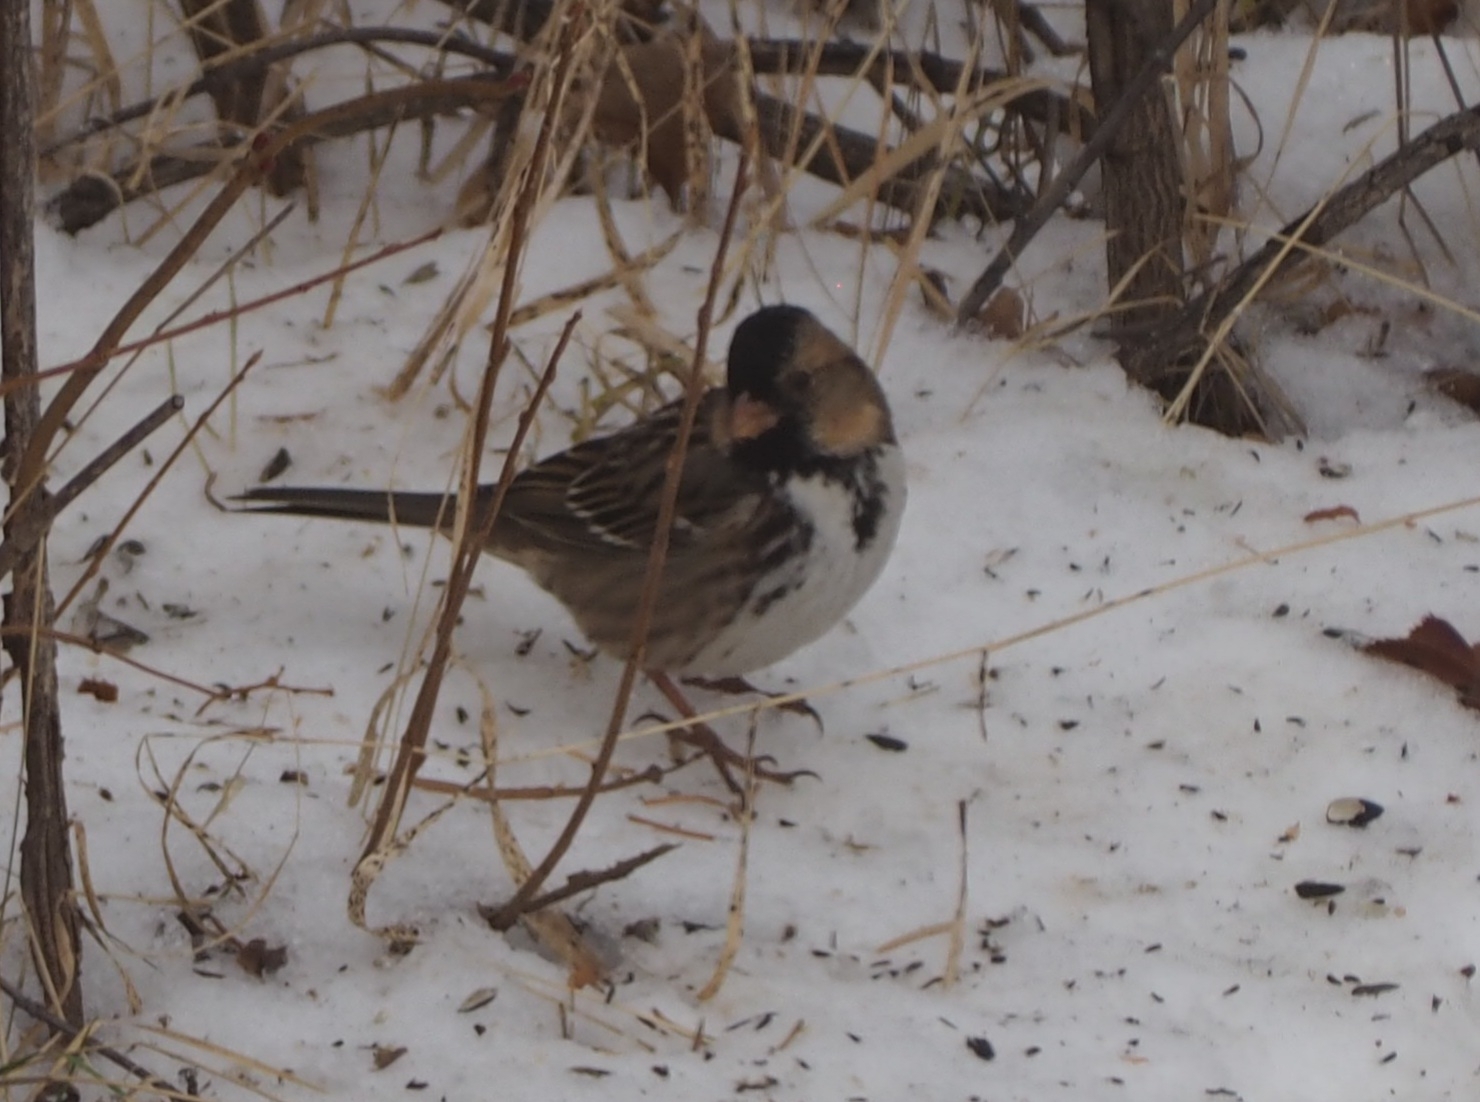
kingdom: Animalia
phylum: Chordata
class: Aves
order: Passeriformes
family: Passerellidae
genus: Zonotrichia
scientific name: Zonotrichia querula
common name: Harris's sparrow
